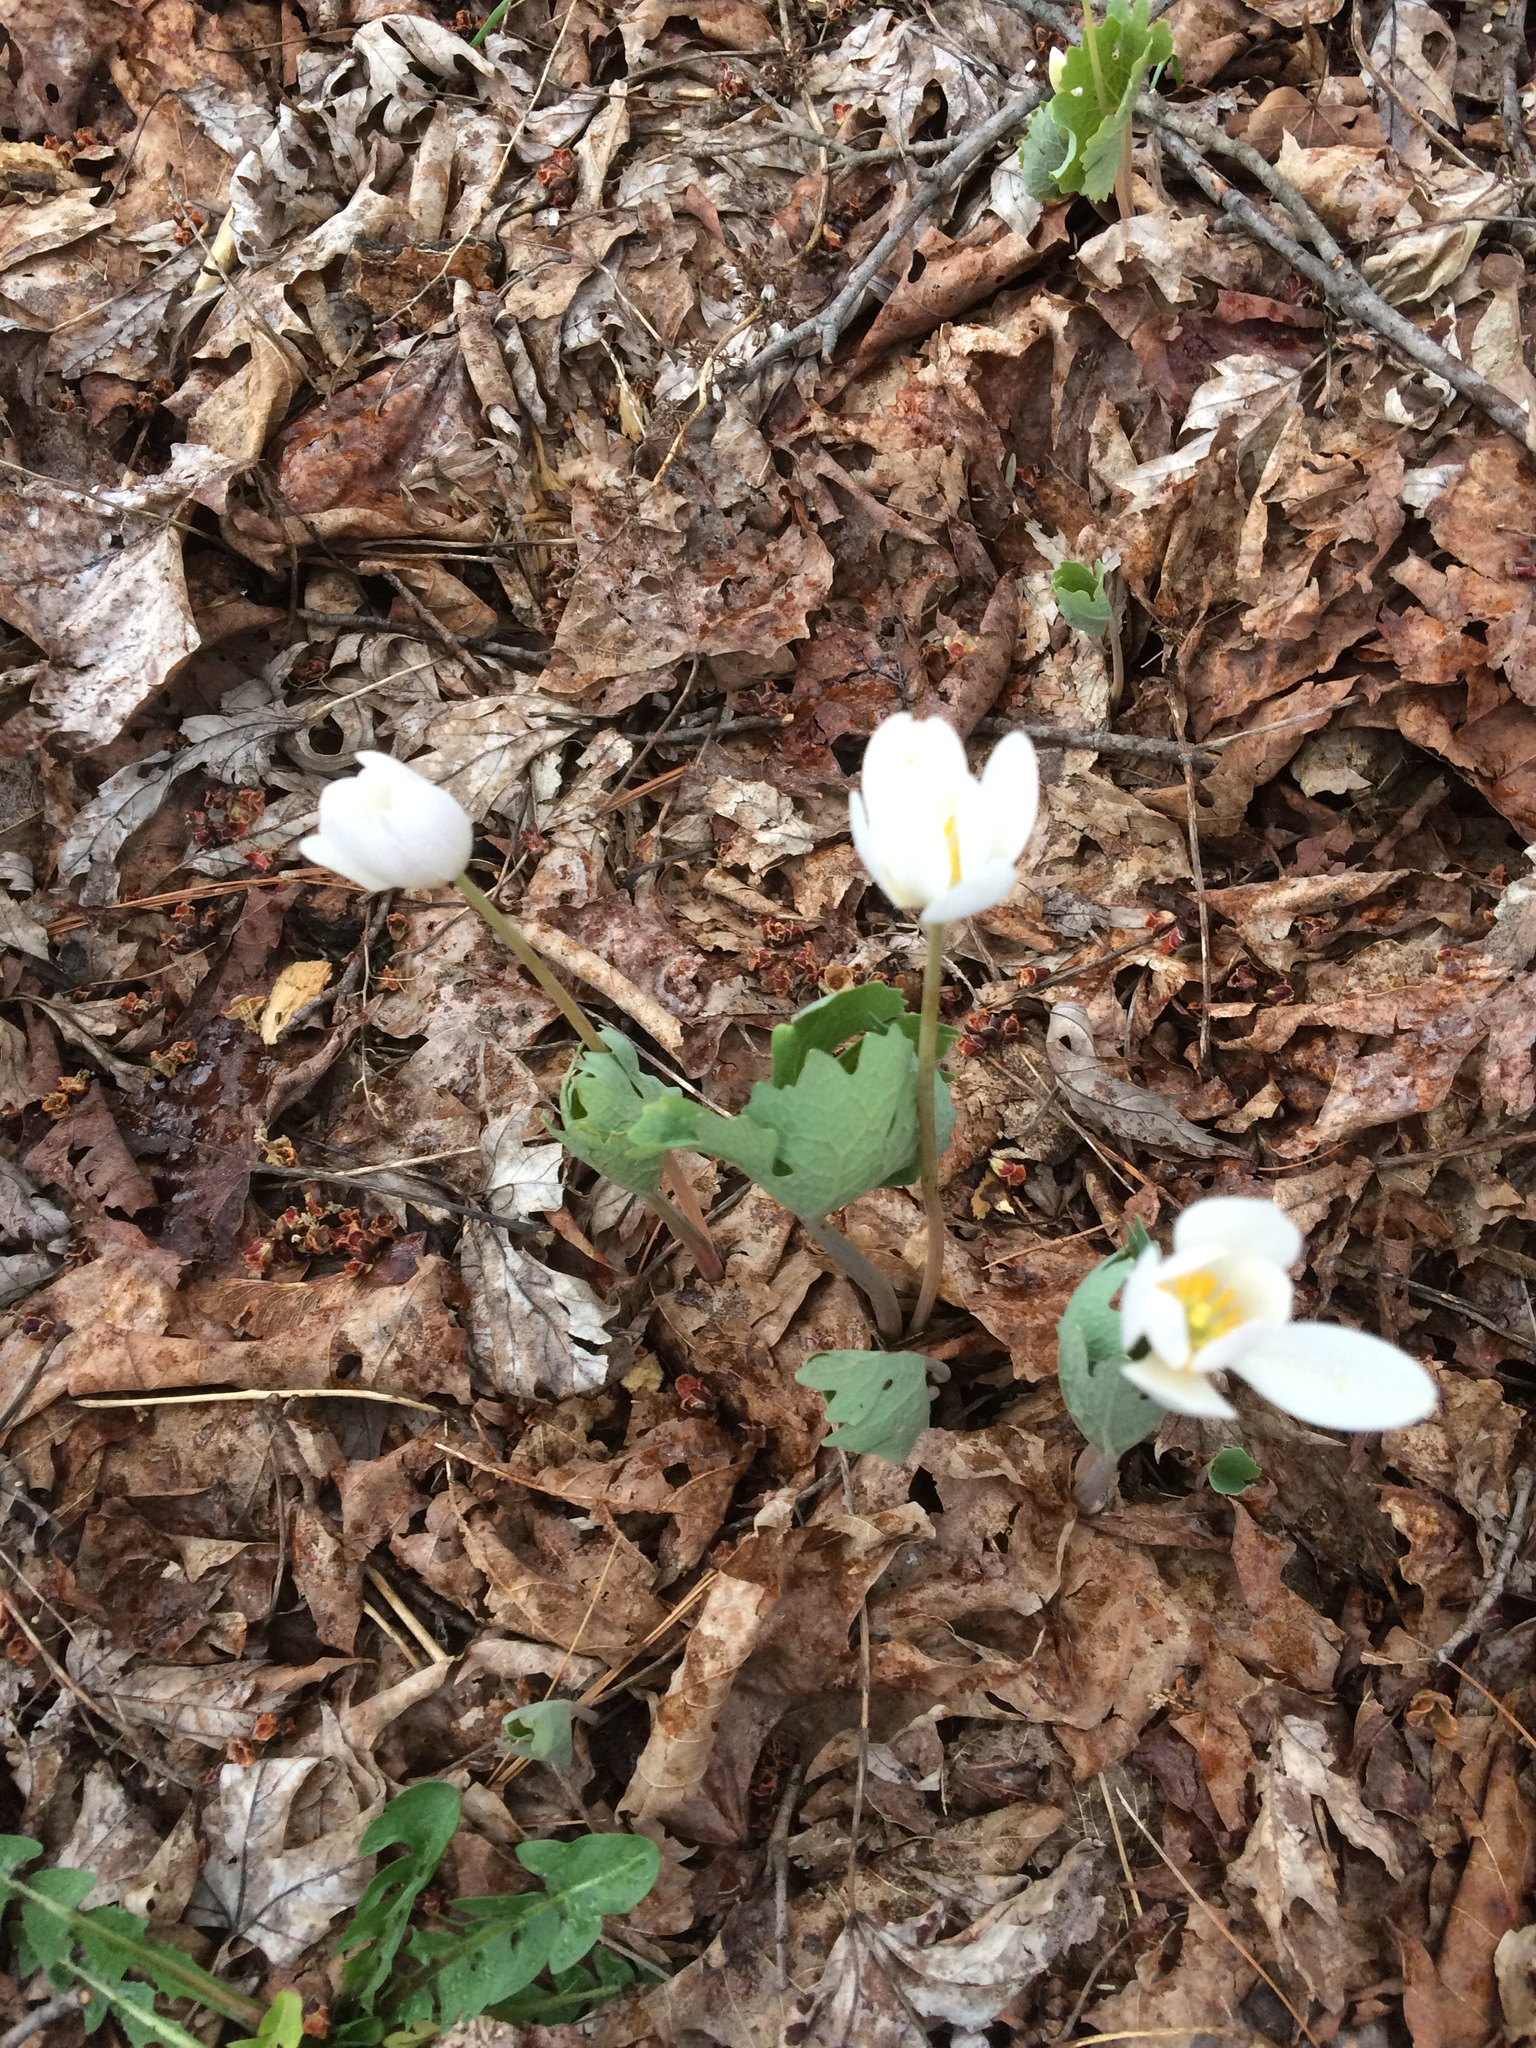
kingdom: Plantae
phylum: Tracheophyta
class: Magnoliopsida
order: Ranunculales
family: Papaveraceae
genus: Sanguinaria
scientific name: Sanguinaria canadensis
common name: Bloodroot
